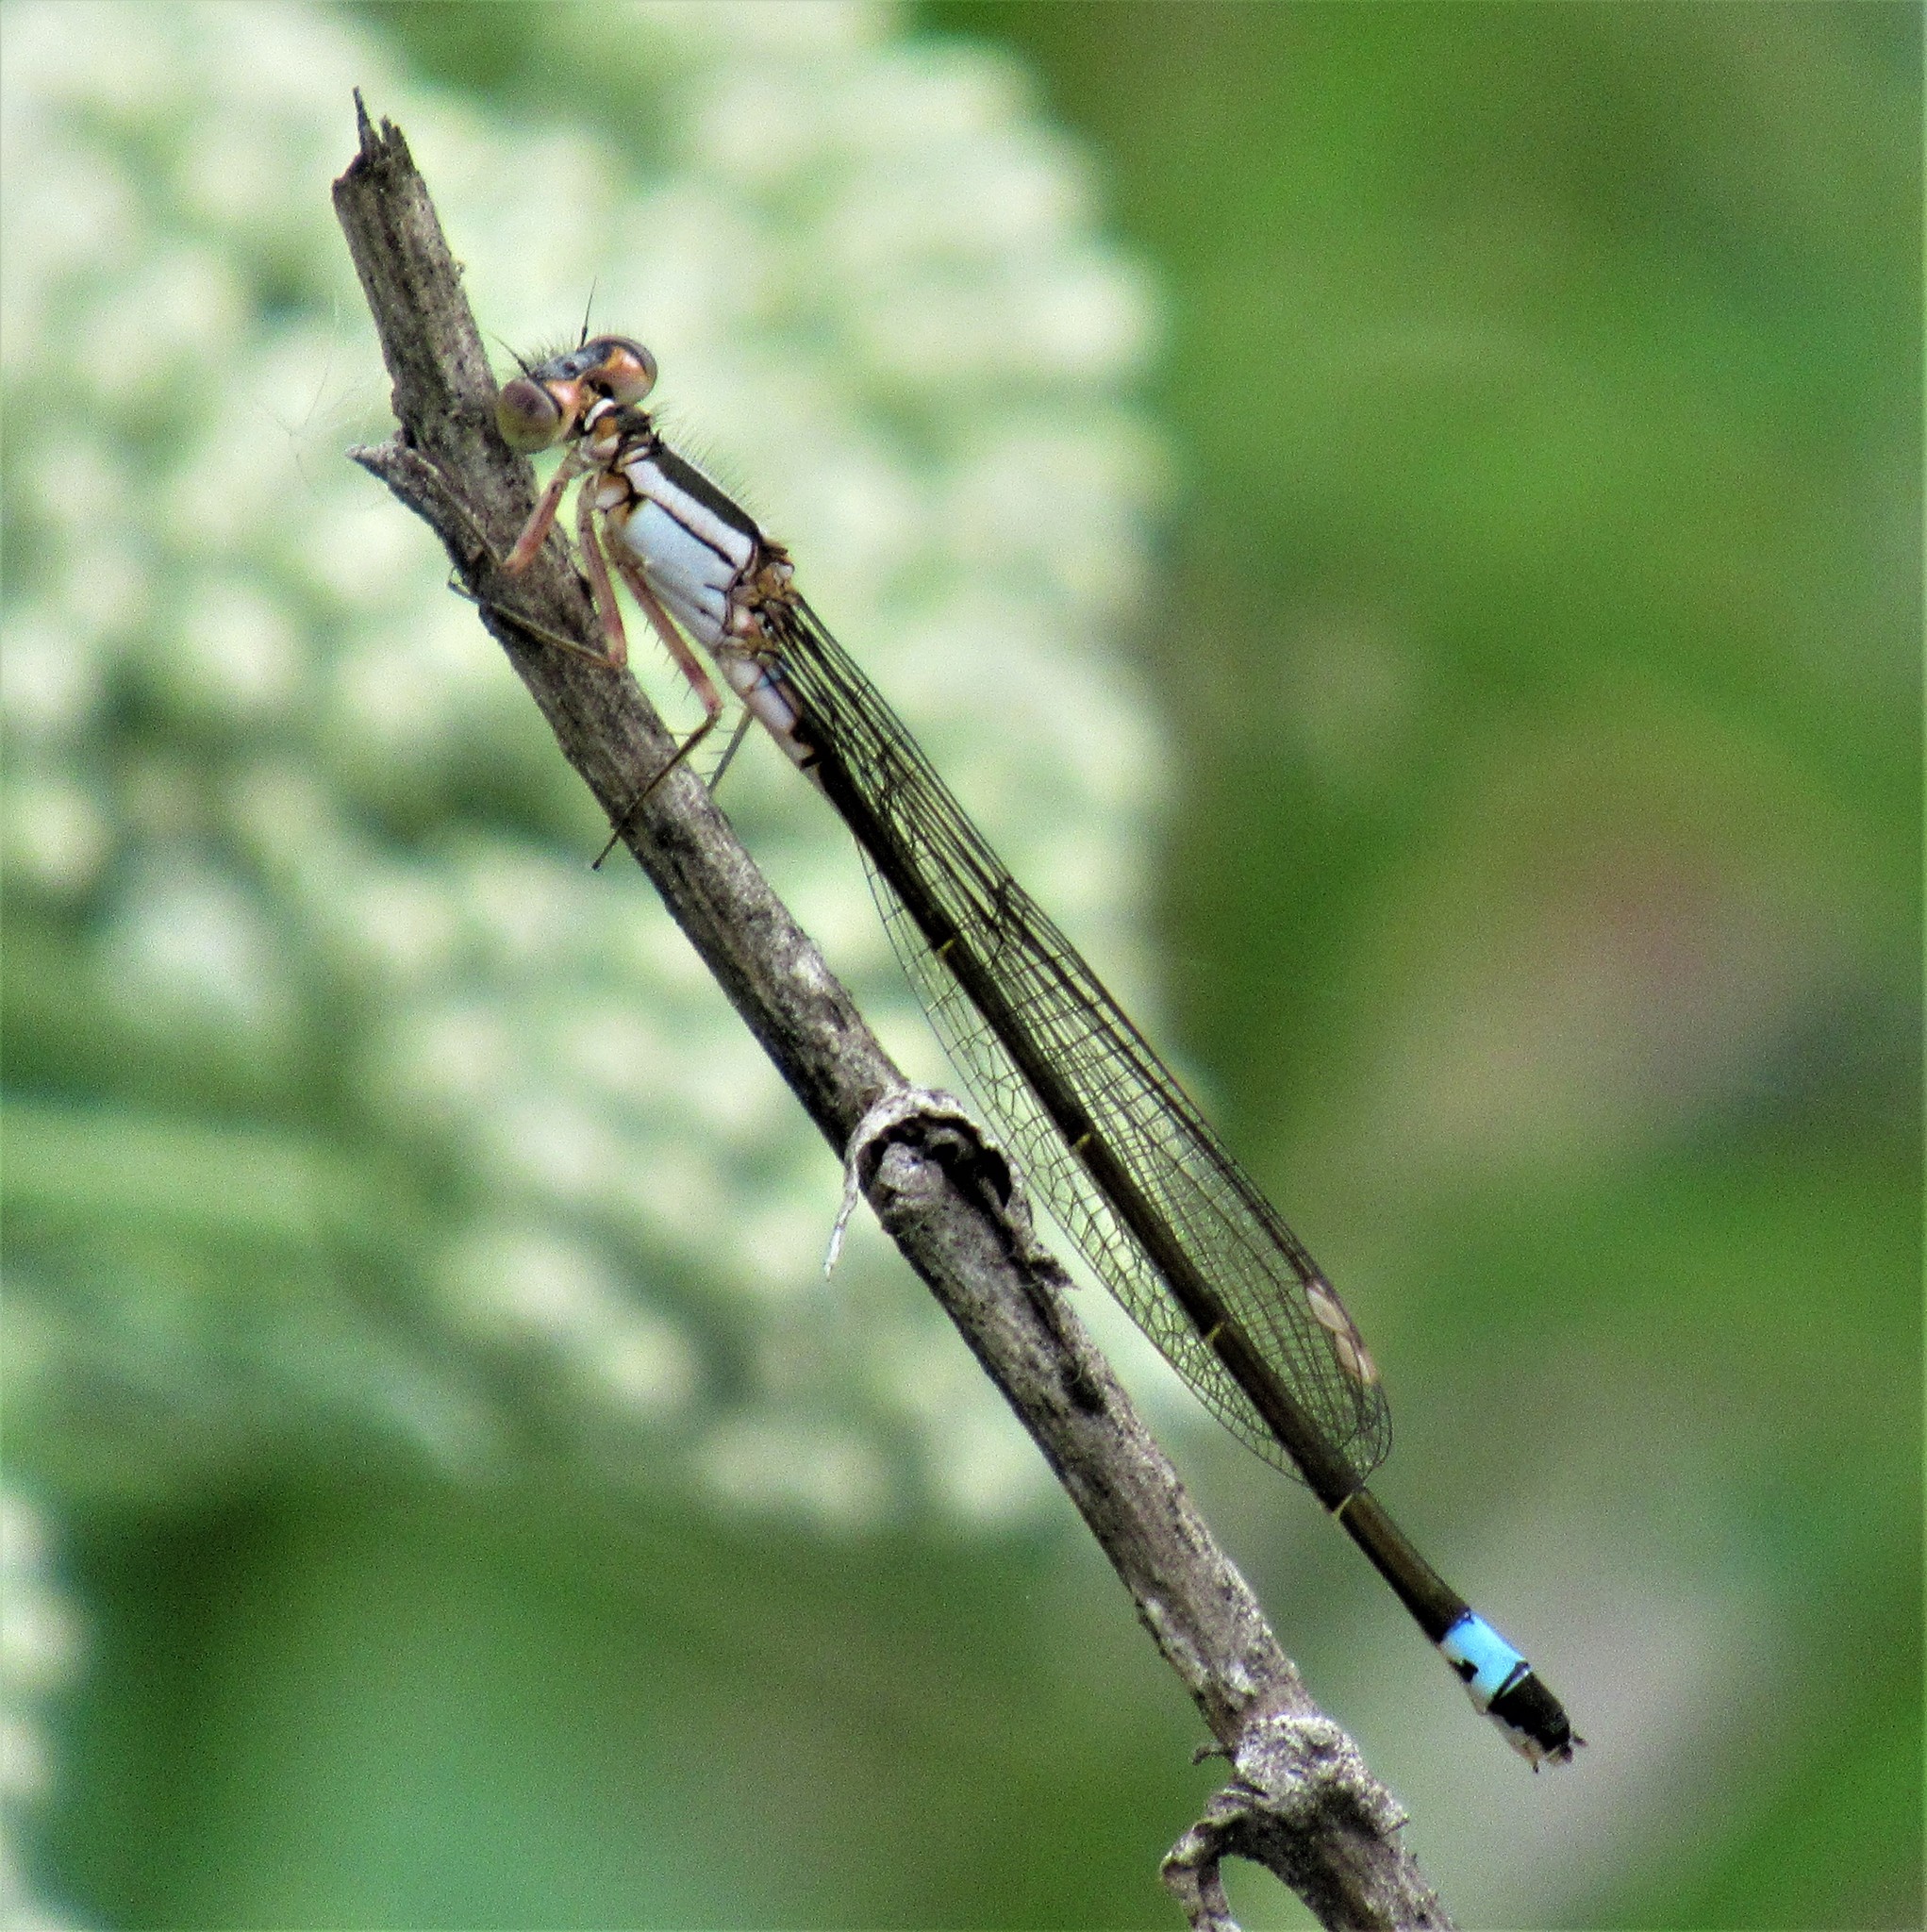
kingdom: Animalia
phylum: Arthropoda
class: Insecta
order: Odonata
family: Coenagrionidae
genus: Ischnura
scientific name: Ischnura cervula
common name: Pacific forktail
